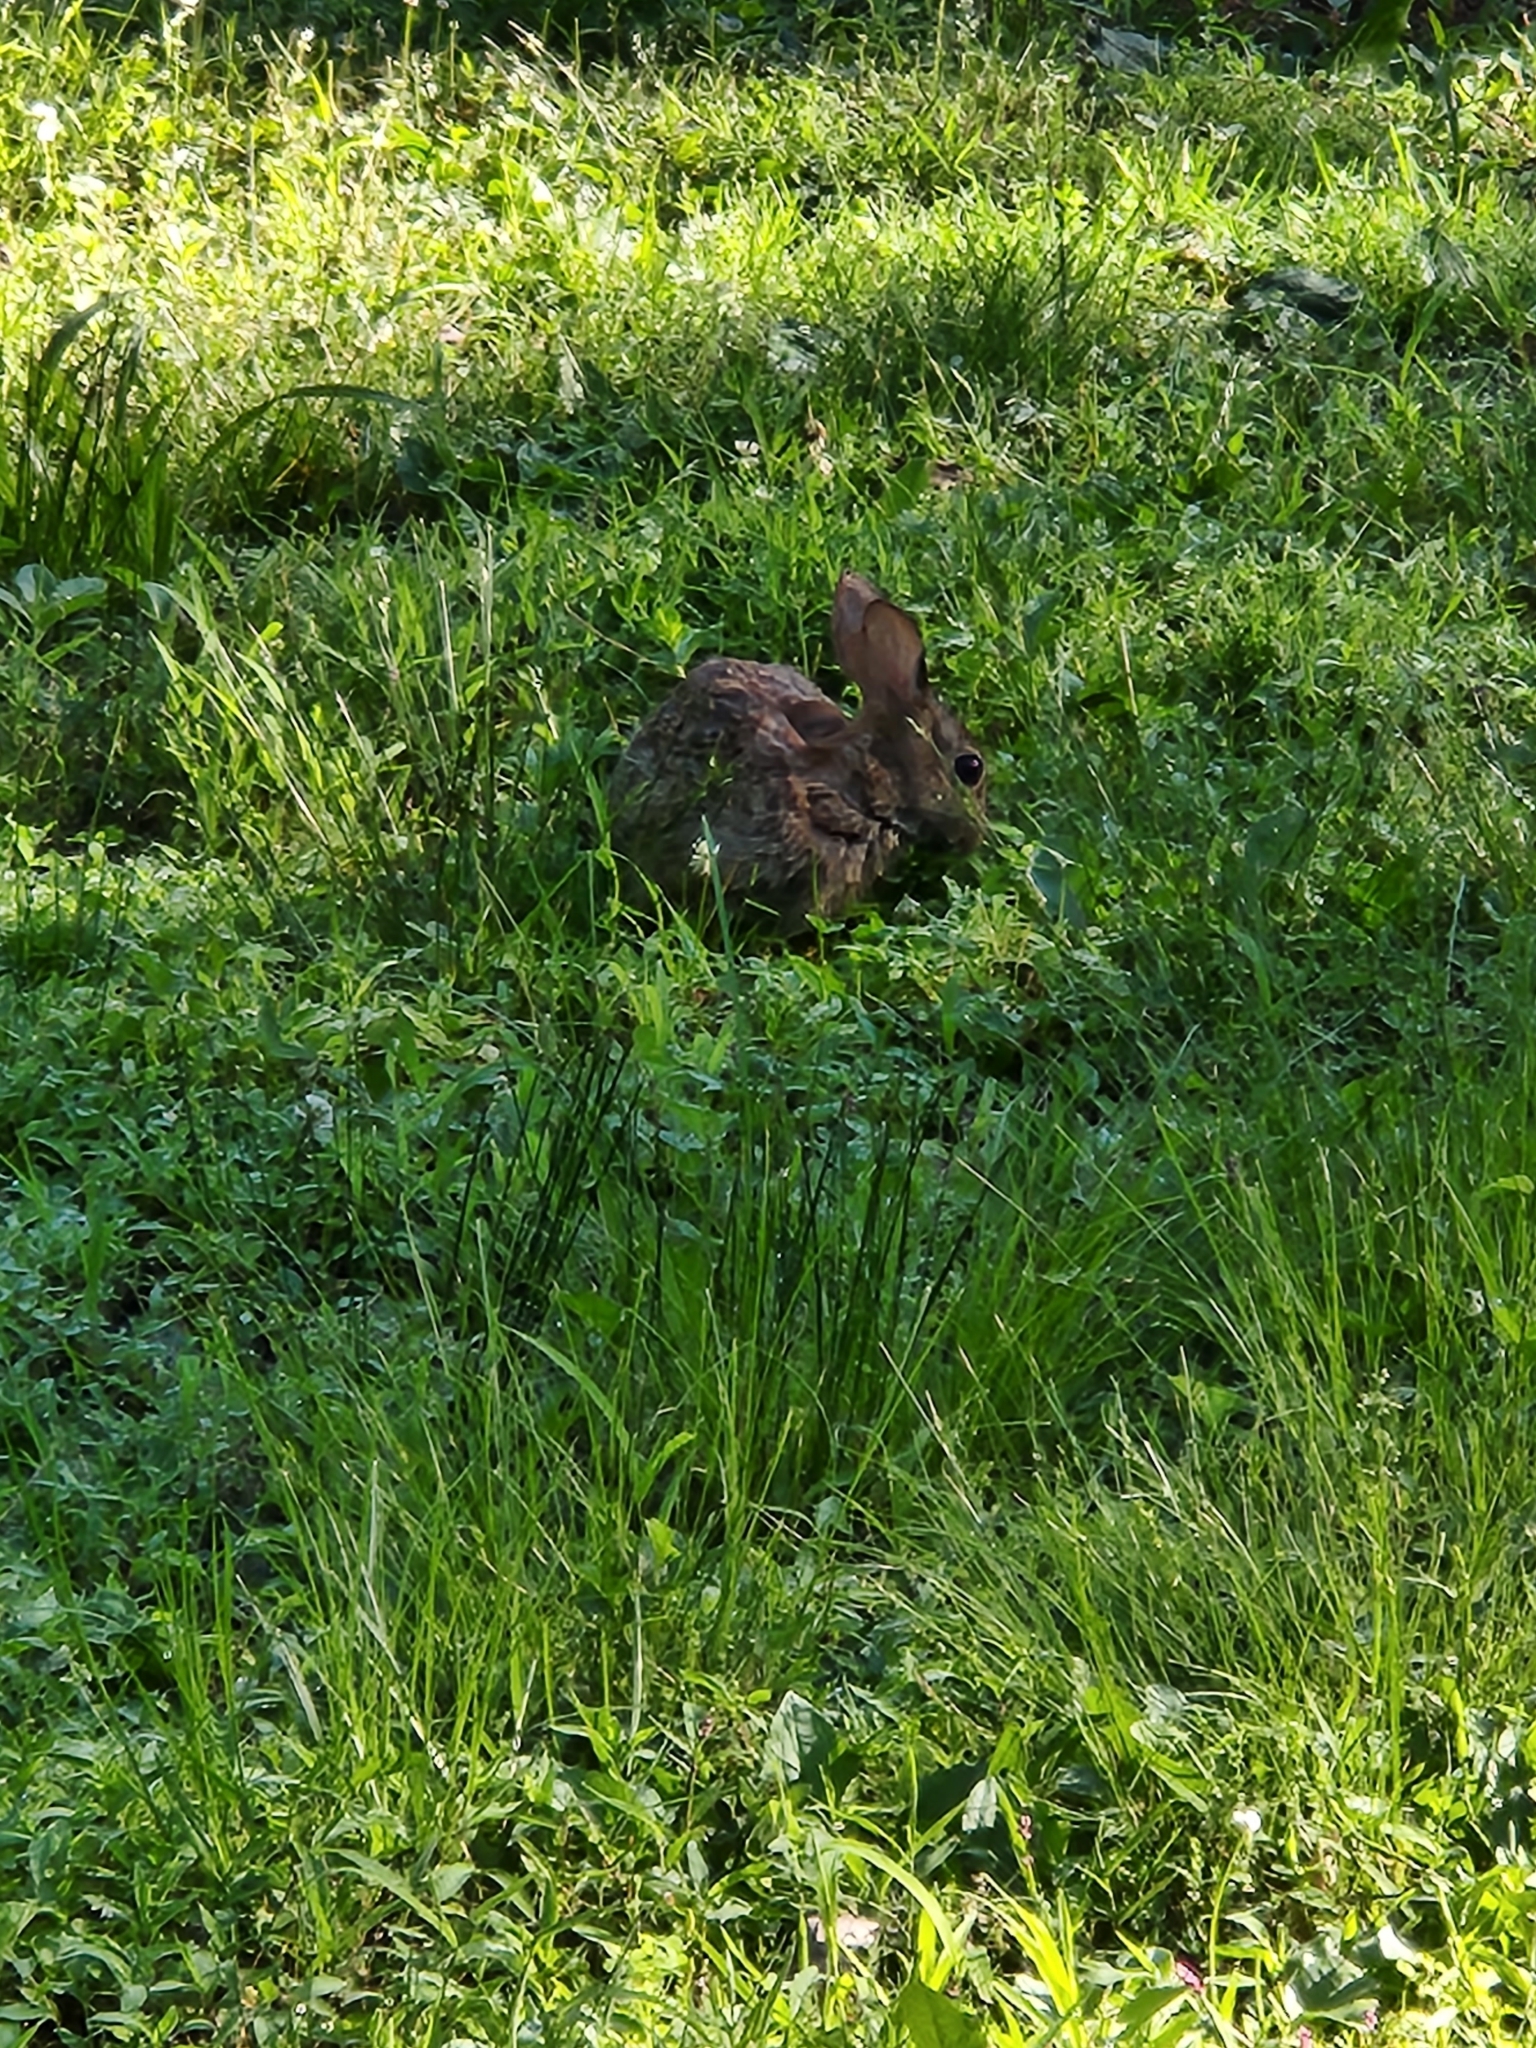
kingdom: Animalia
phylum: Chordata
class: Mammalia
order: Lagomorpha
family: Leporidae
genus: Sylvilagus
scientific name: Sylvilagus floridanus
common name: Eastern cottontail
